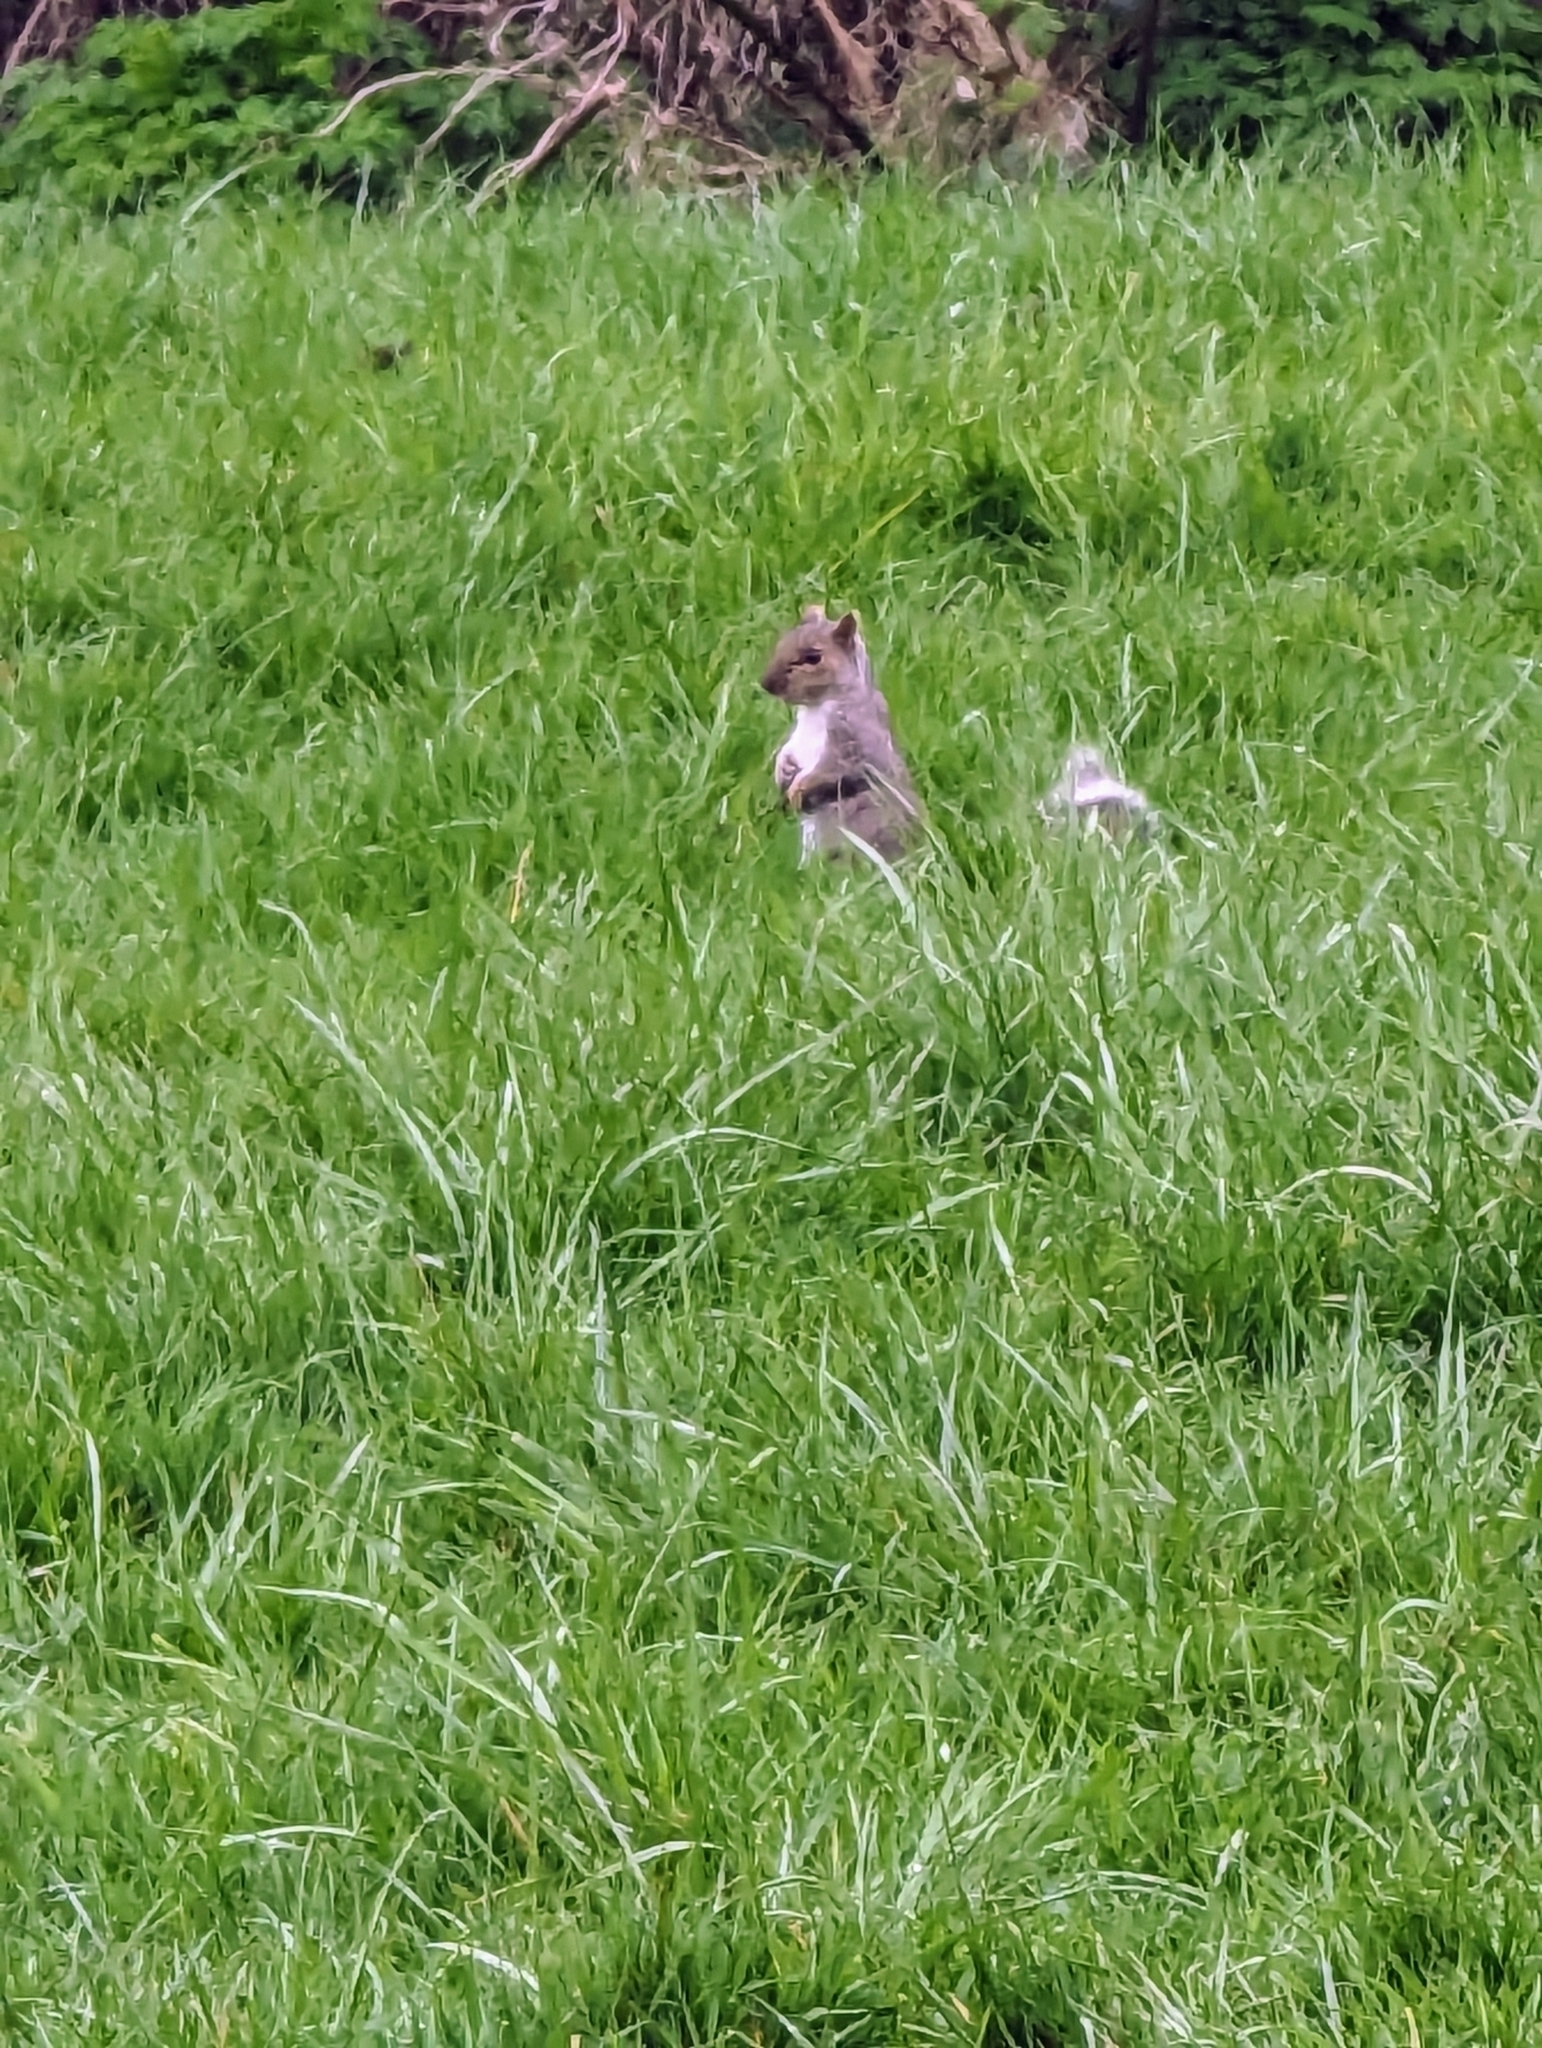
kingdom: Animalia
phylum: Chordata
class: Mammalia
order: Rodentia
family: Sciuridae
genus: Sciurus
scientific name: Sciurus carolinensis
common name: Eastern gray squirrel
